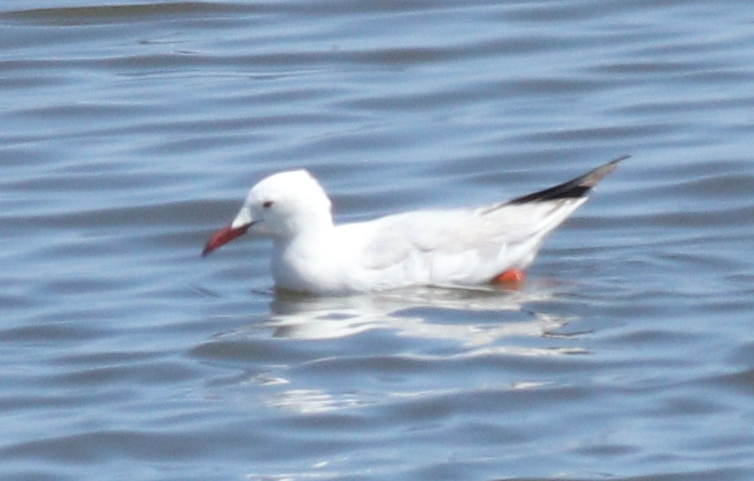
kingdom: Animalia
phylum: Chordata
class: Aves
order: Charadriiformes
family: Laridae
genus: Chroicocephalus
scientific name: Chroicocephalus genei
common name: Slender-billed gull
